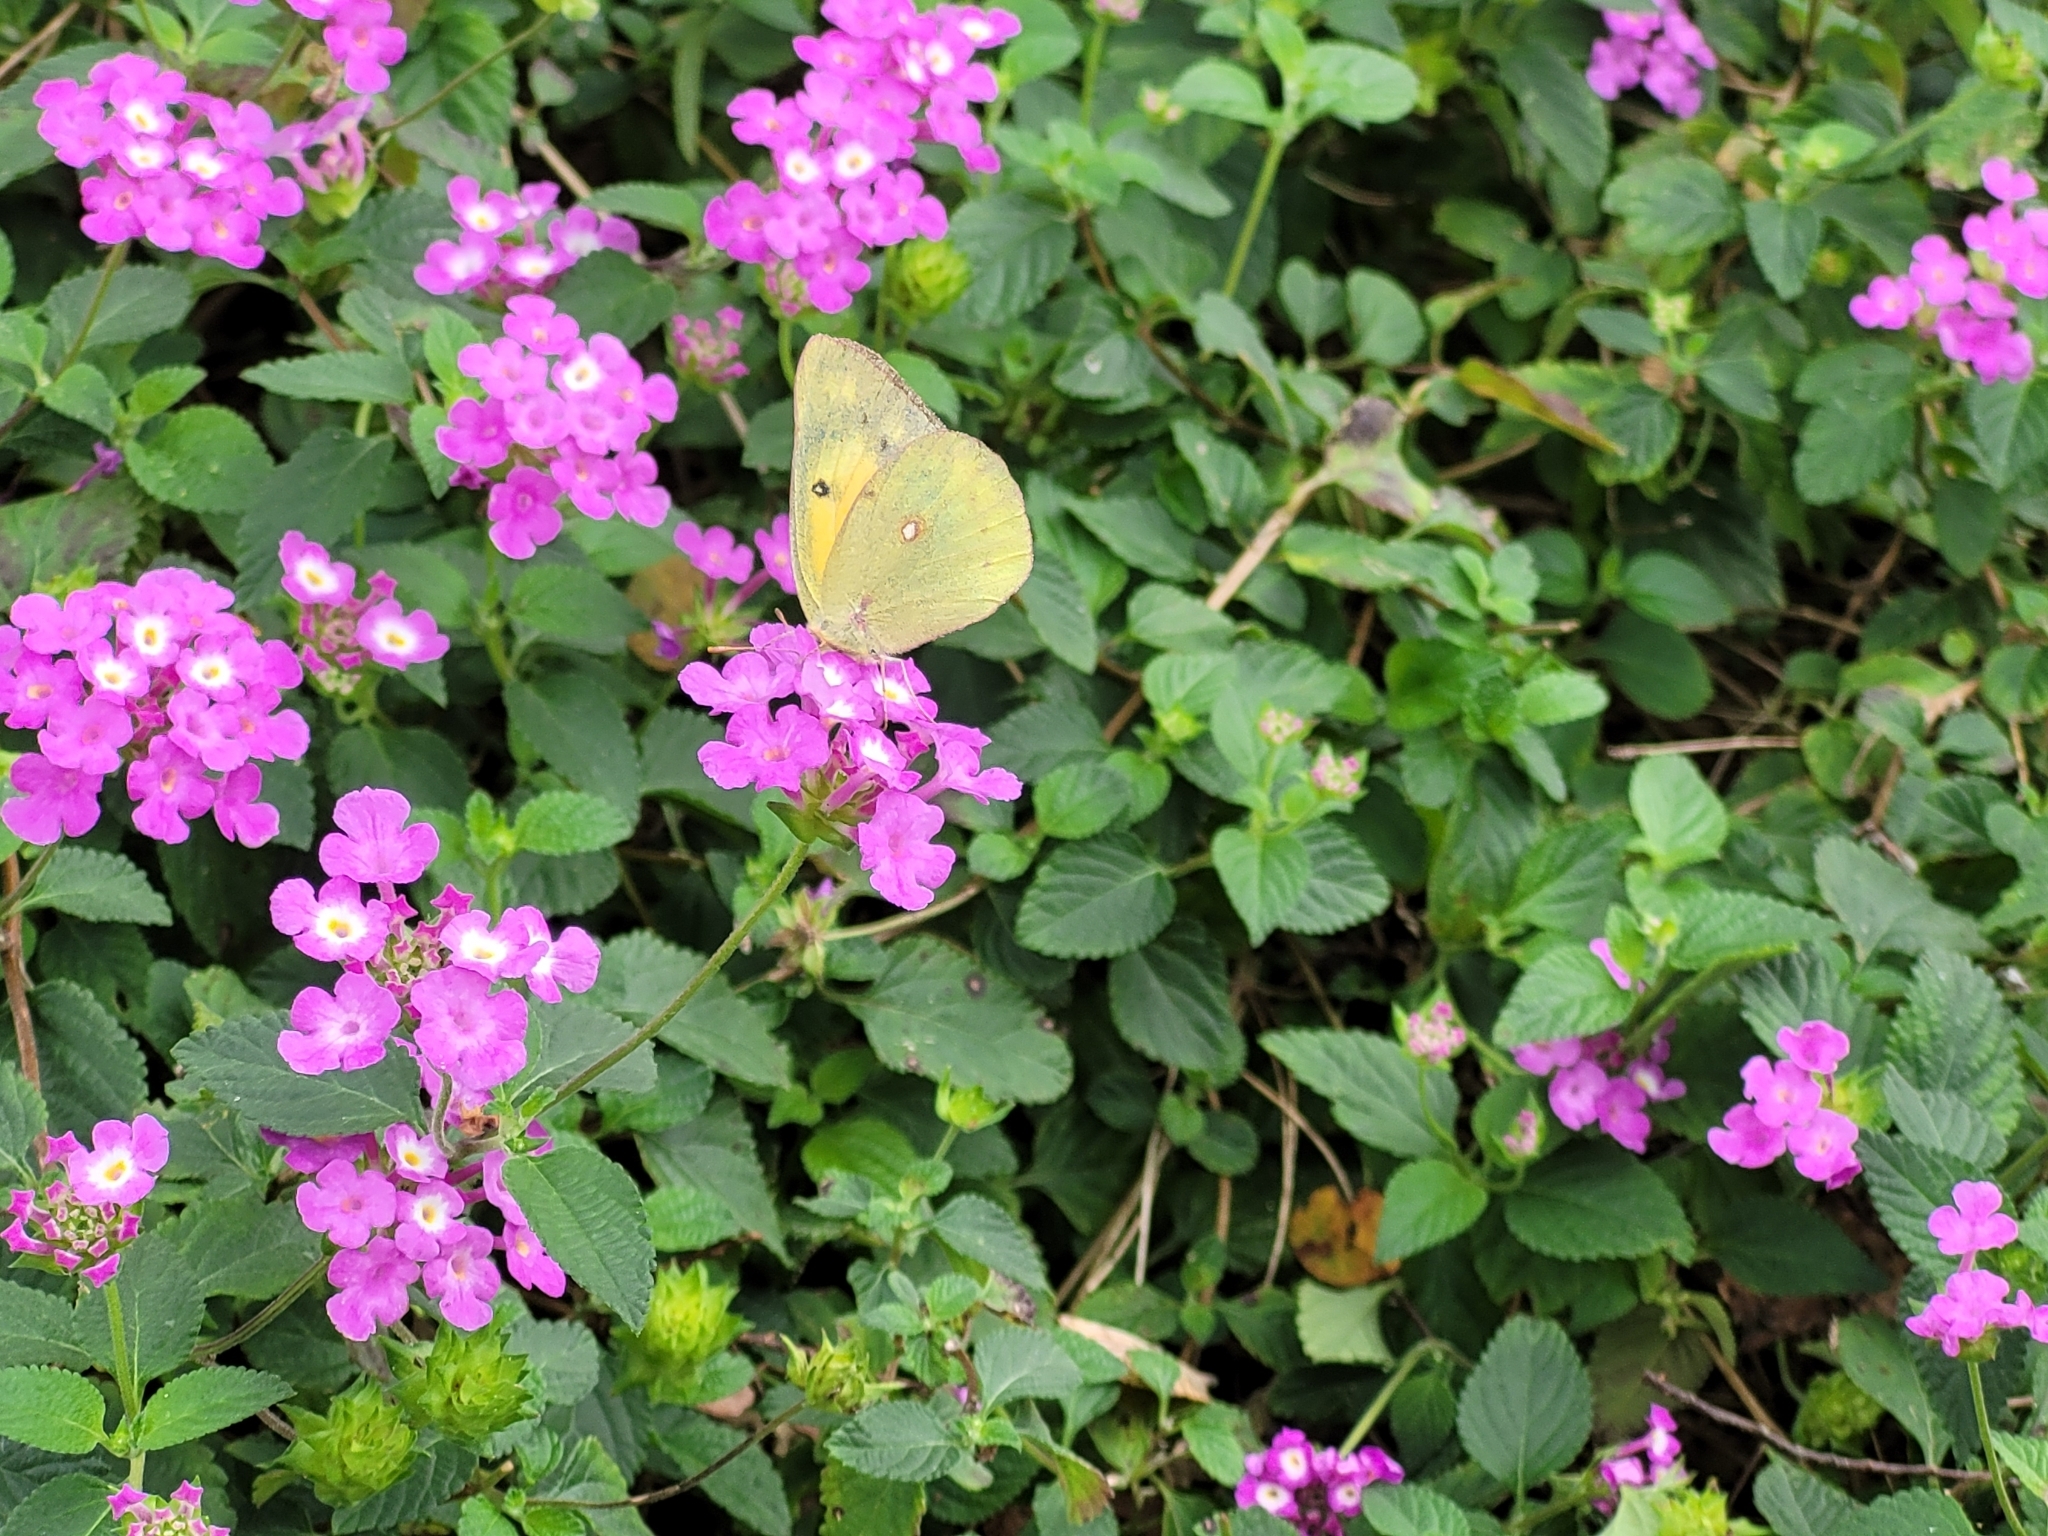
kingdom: Animalia
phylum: Arthropoda
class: Insecta
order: Lepidoptera
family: Pieridae
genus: Colias
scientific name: Colias eurytheme
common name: Alfalfa butterfly
